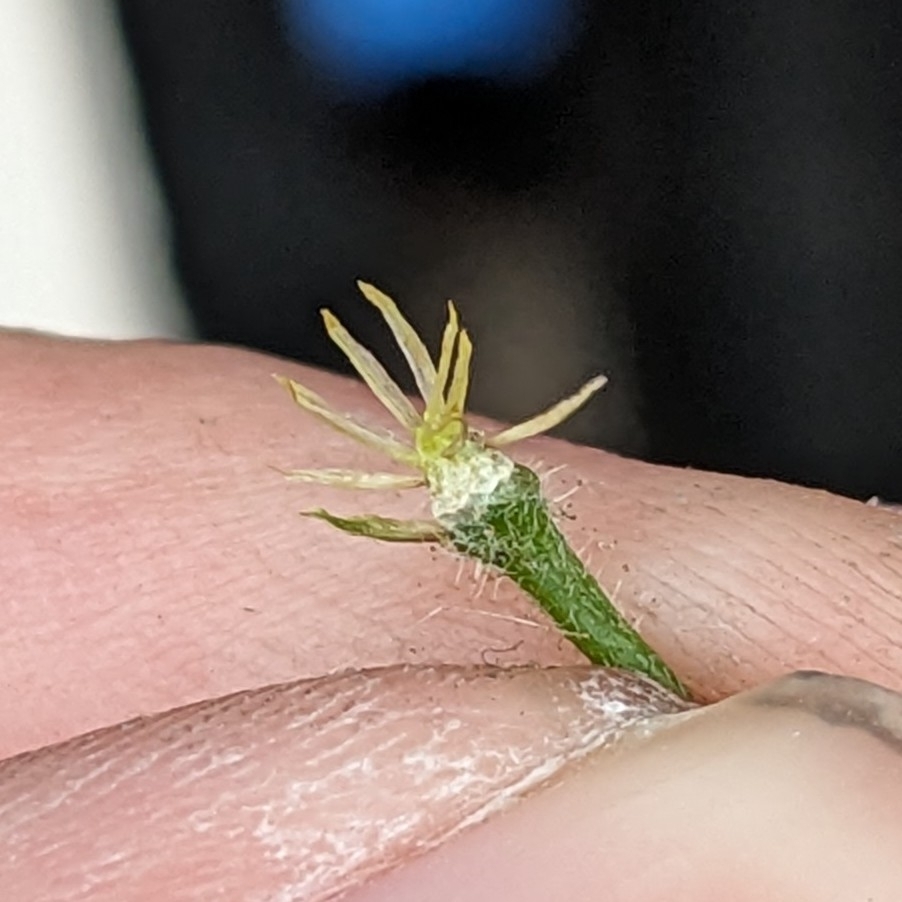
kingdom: Plantae
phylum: Tracheophyta
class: Magnoliopsida
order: Asterales
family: Asteraceae
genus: Galinsoga
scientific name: Galinsoga quadriradiata
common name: Shaggy soldier
